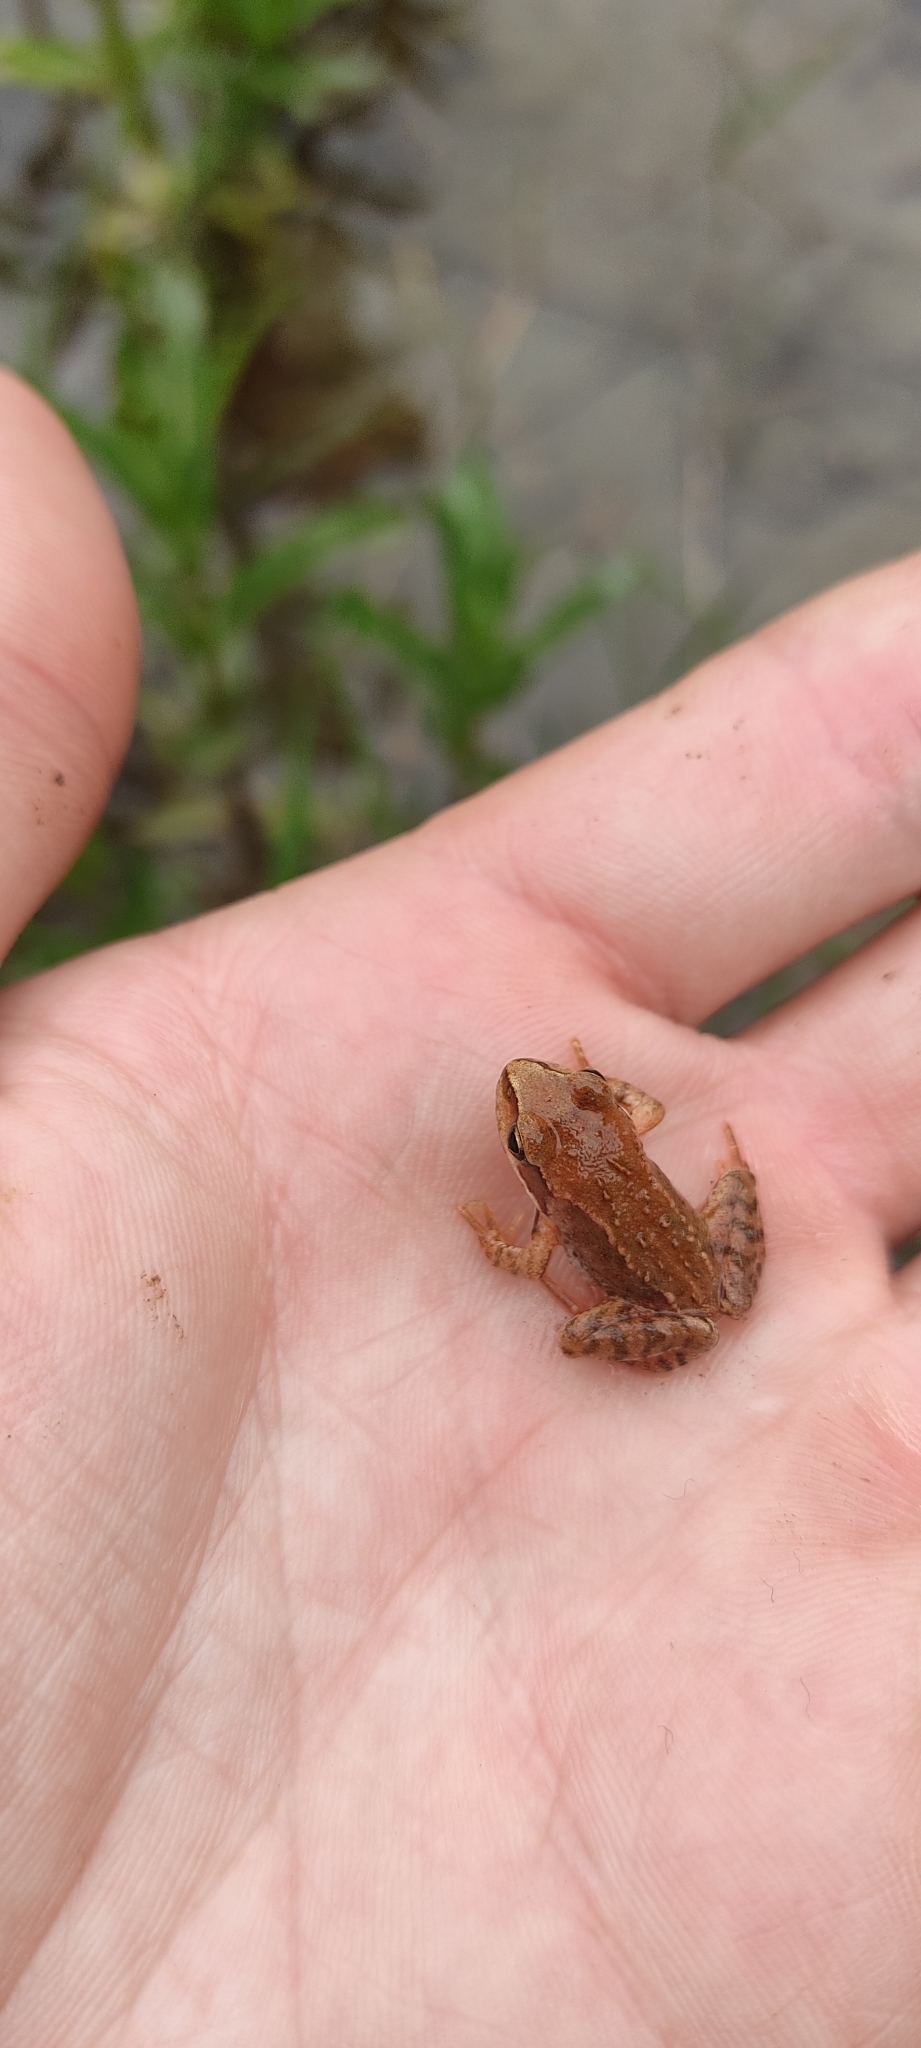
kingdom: Animalia
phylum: Chordata
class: Amphibia
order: Anura
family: Ranidae
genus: Rana
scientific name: Rana temporaria
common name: Common frog
